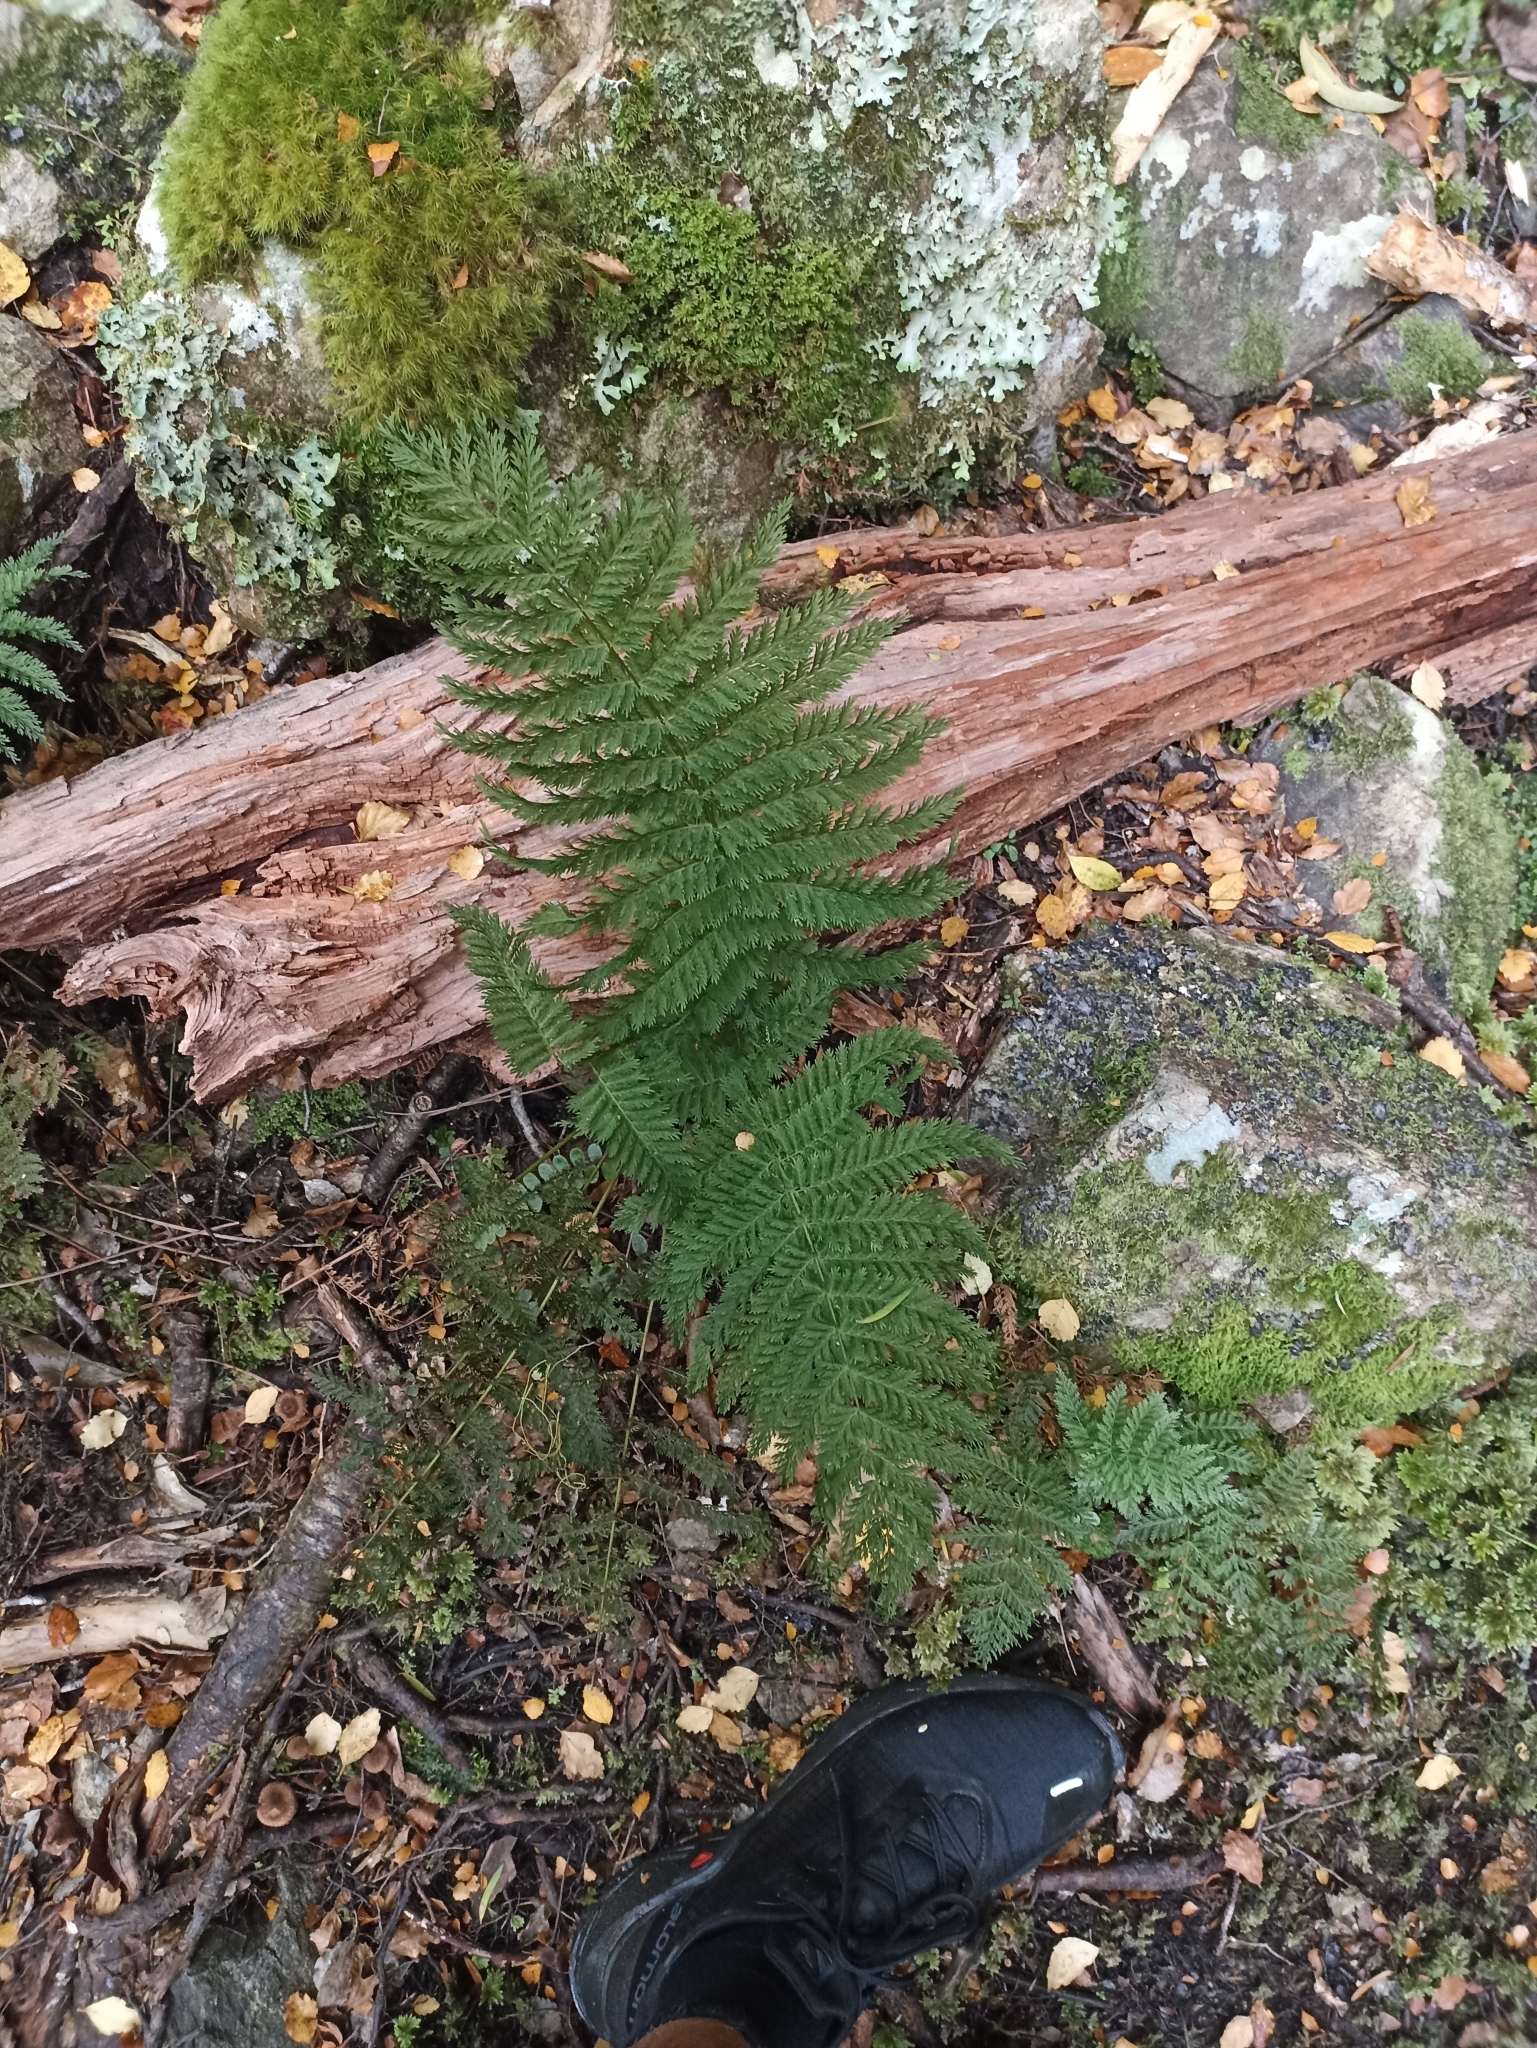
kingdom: Plantae
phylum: Tracheophyta
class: Polypodiopsida
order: Osmundales
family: Osmundaceae
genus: Leptopteris
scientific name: Leptopteris hymenophylloides
